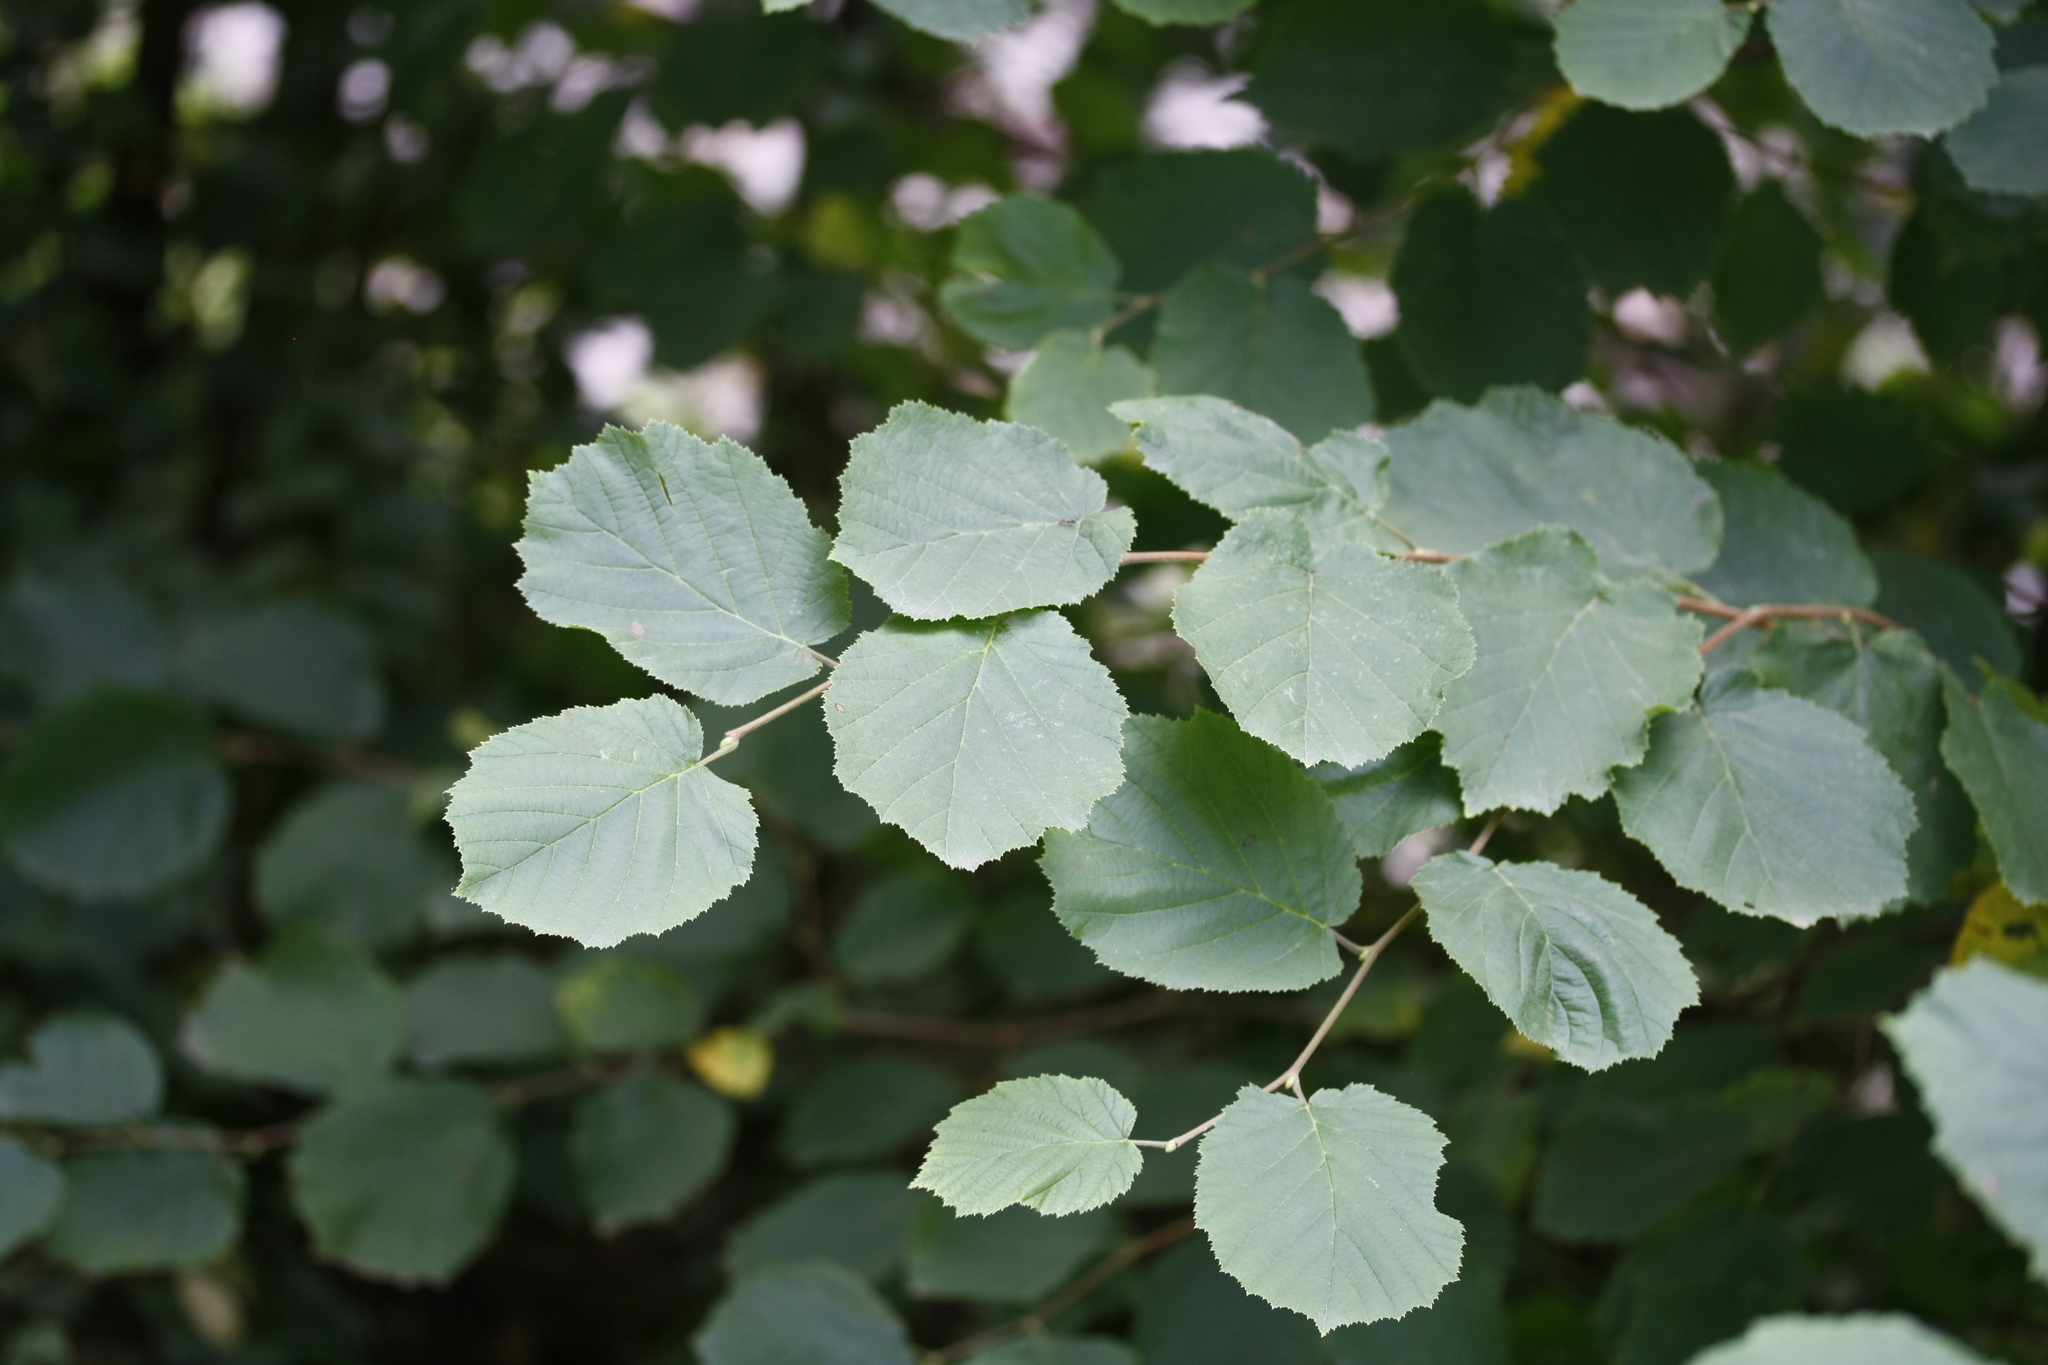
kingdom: Plantae
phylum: Tracheophyta
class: Magnoliopsida
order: Fagales
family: Betulaceae
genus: Corylus
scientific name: Corylus avellana
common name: European hazel
